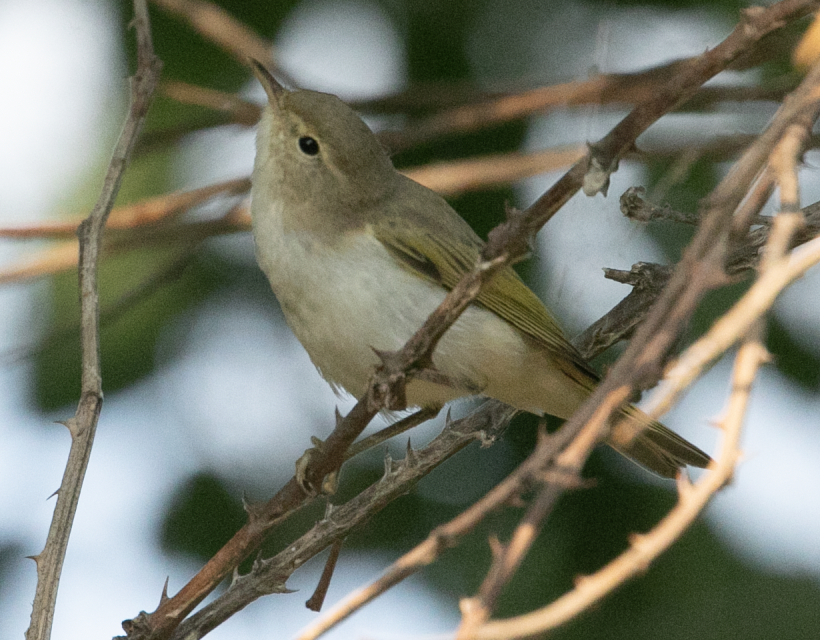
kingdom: Animalia
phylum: Chordata
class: Aves
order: Passeriformes
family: Phylloscopidae
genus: Phylloscopus
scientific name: Phylloscopus bonelli
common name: Western bonelli's warbler
